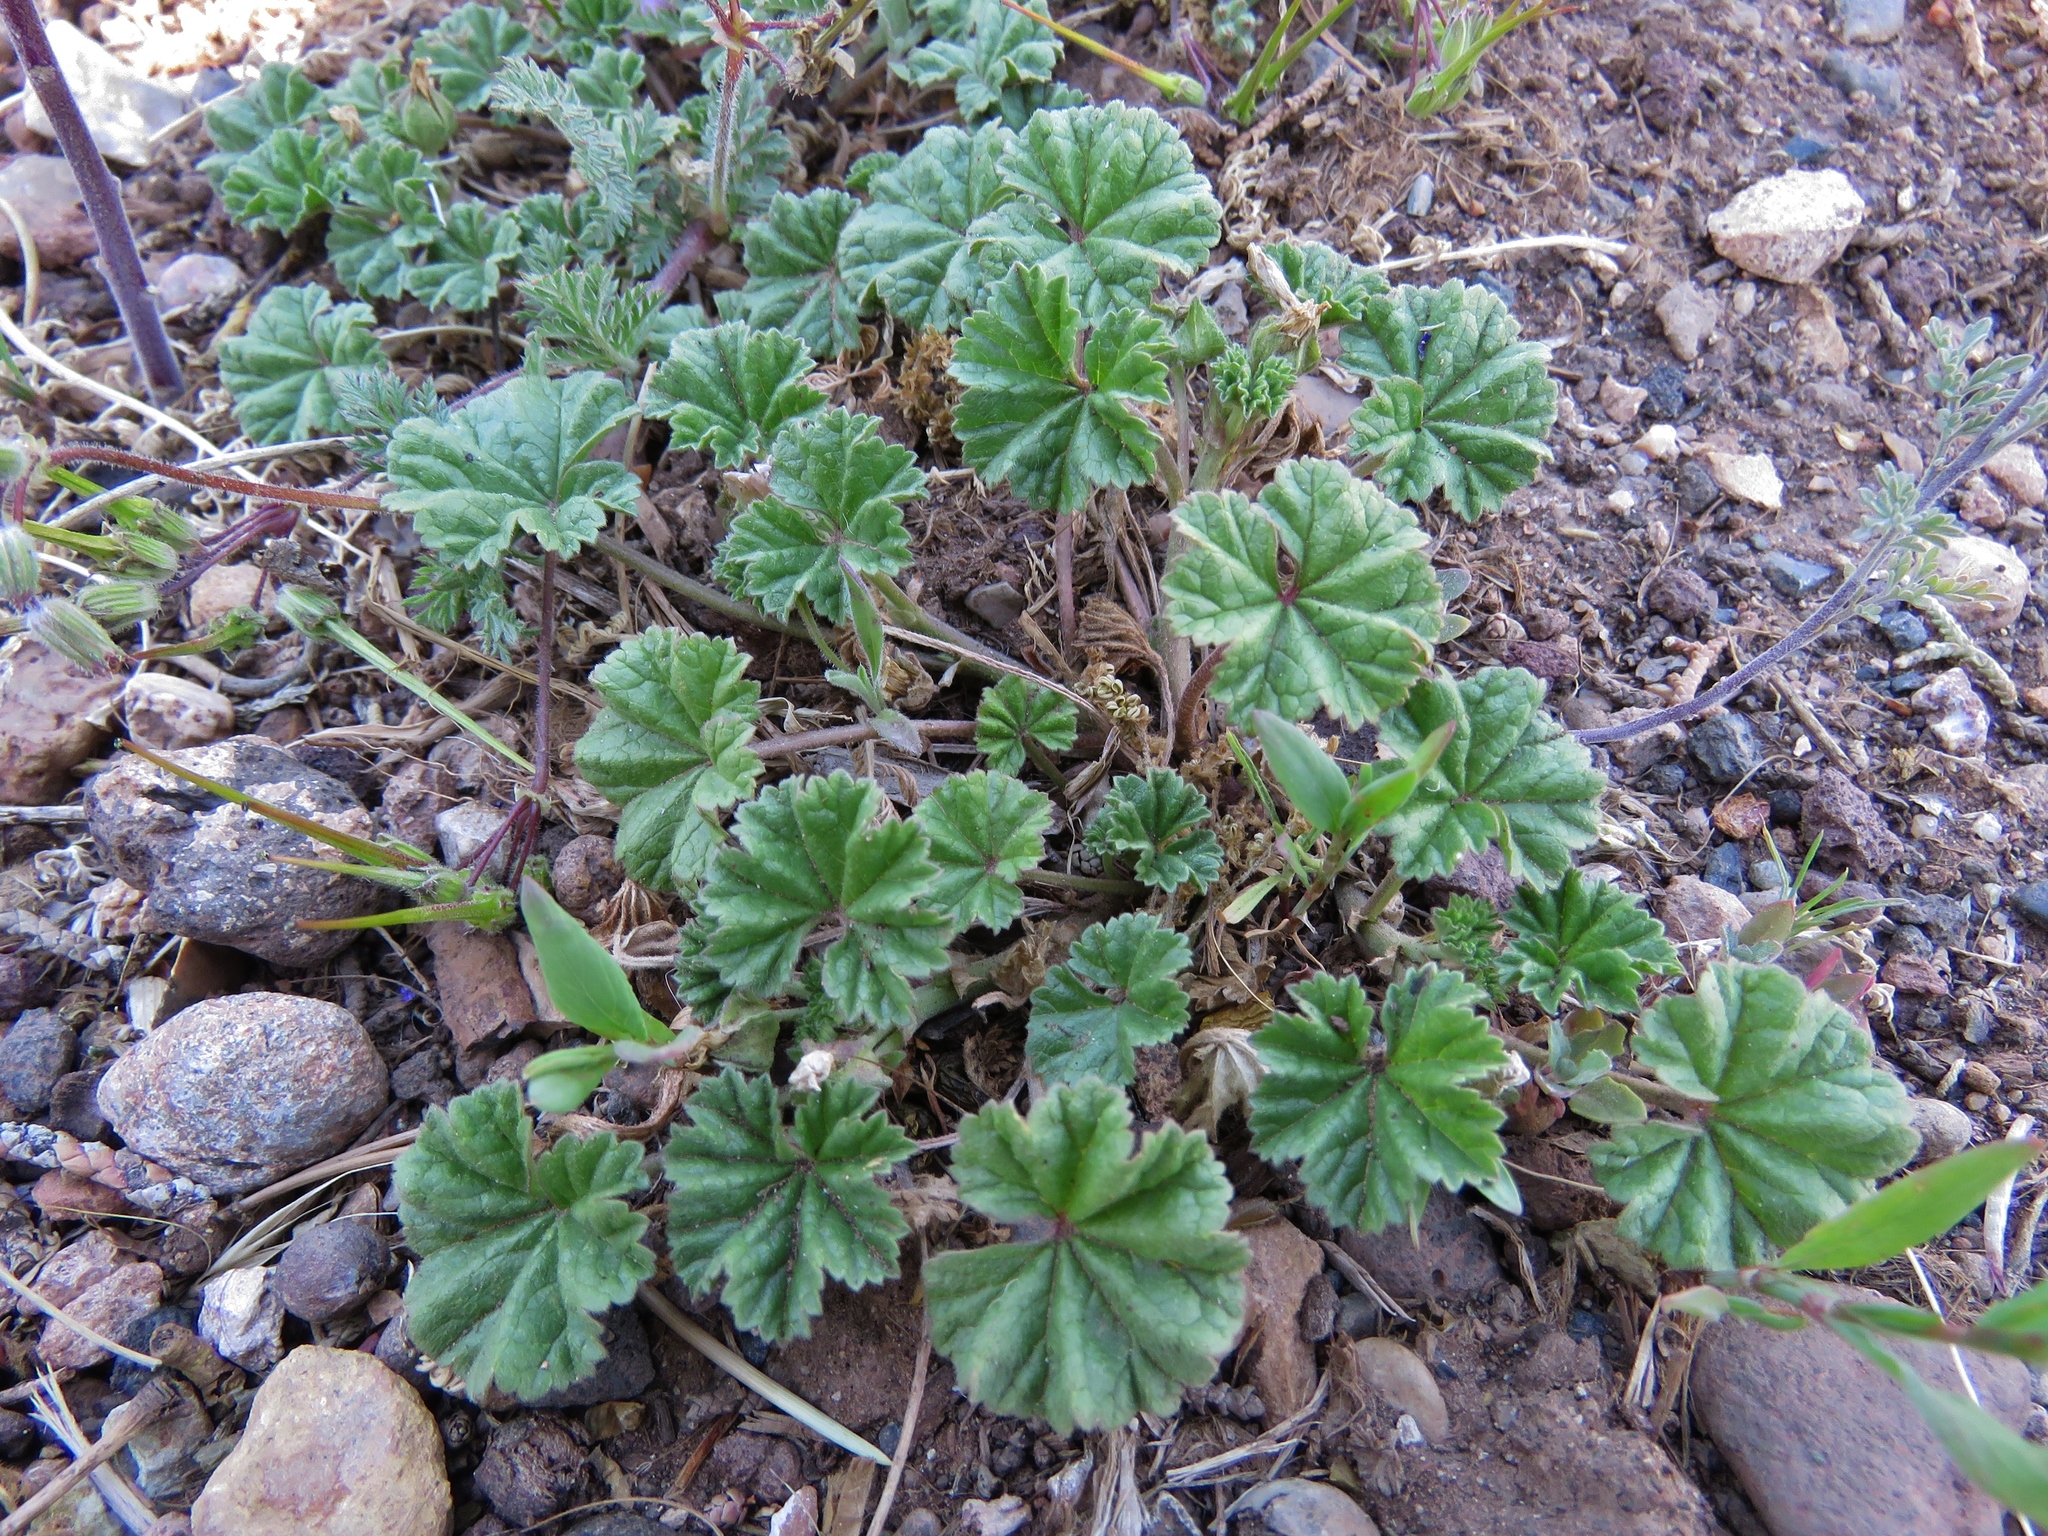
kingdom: Plantae
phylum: Tracheophyta
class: Magnoliopsida
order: Malvales
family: Malvaceae
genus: Malva
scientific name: Malva parviflora
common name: Least mallow
